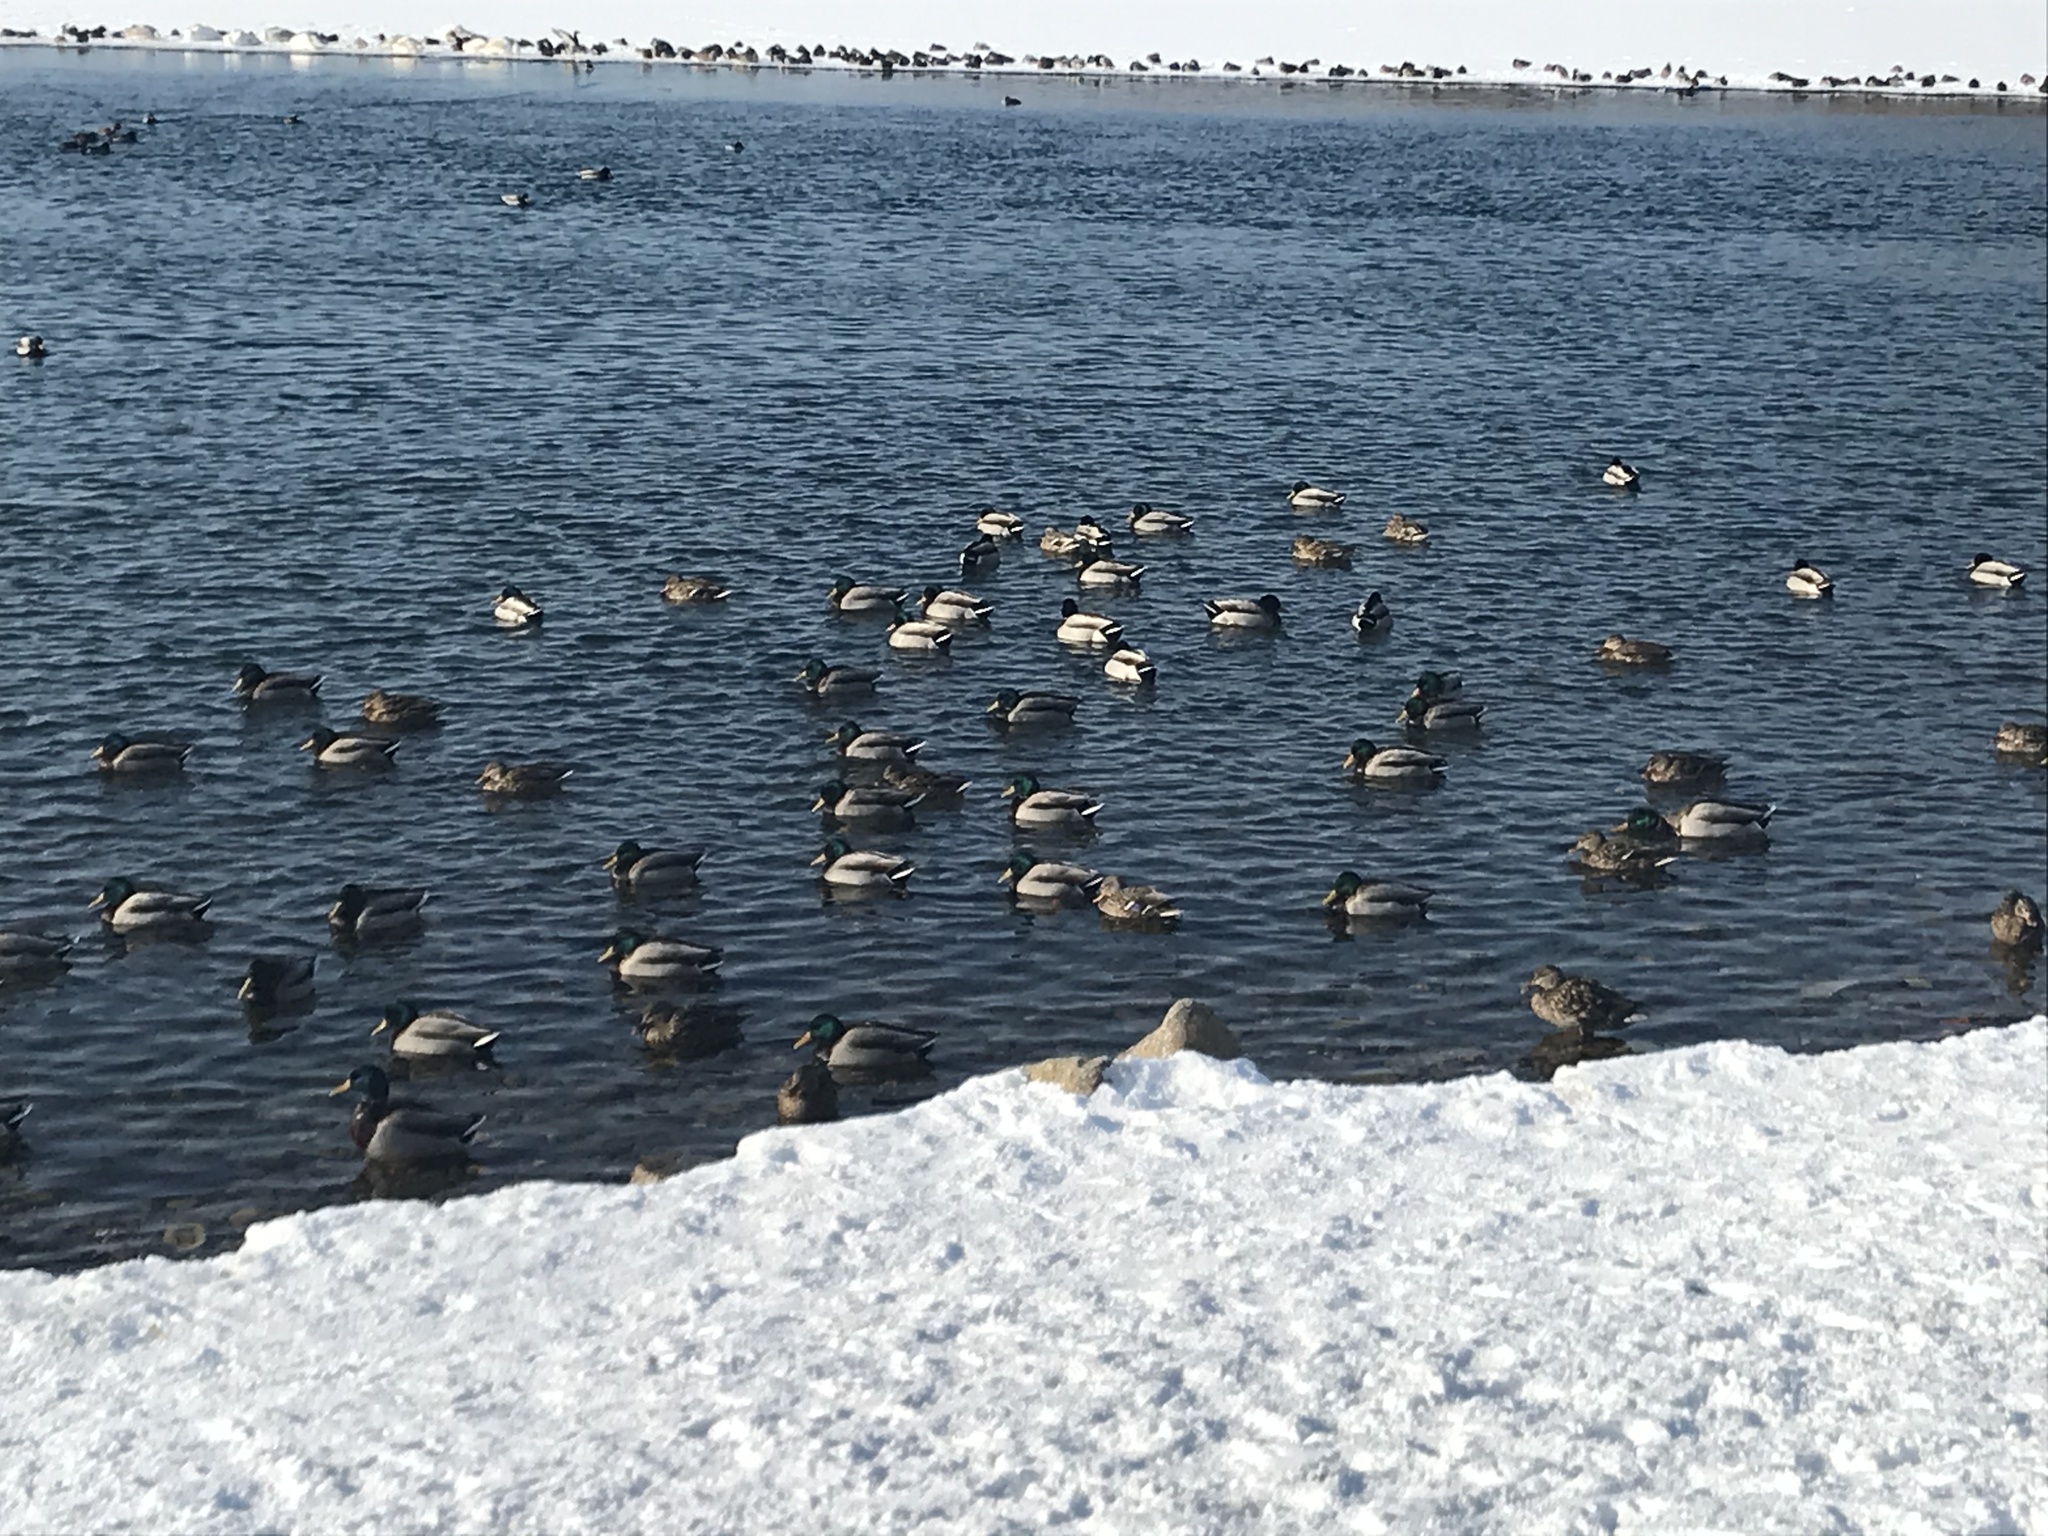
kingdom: Animalia
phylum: Chordata
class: Aves
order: Anseriformes
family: Anatidae
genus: Anas
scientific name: Anas platyrhynchos
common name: Mallard
